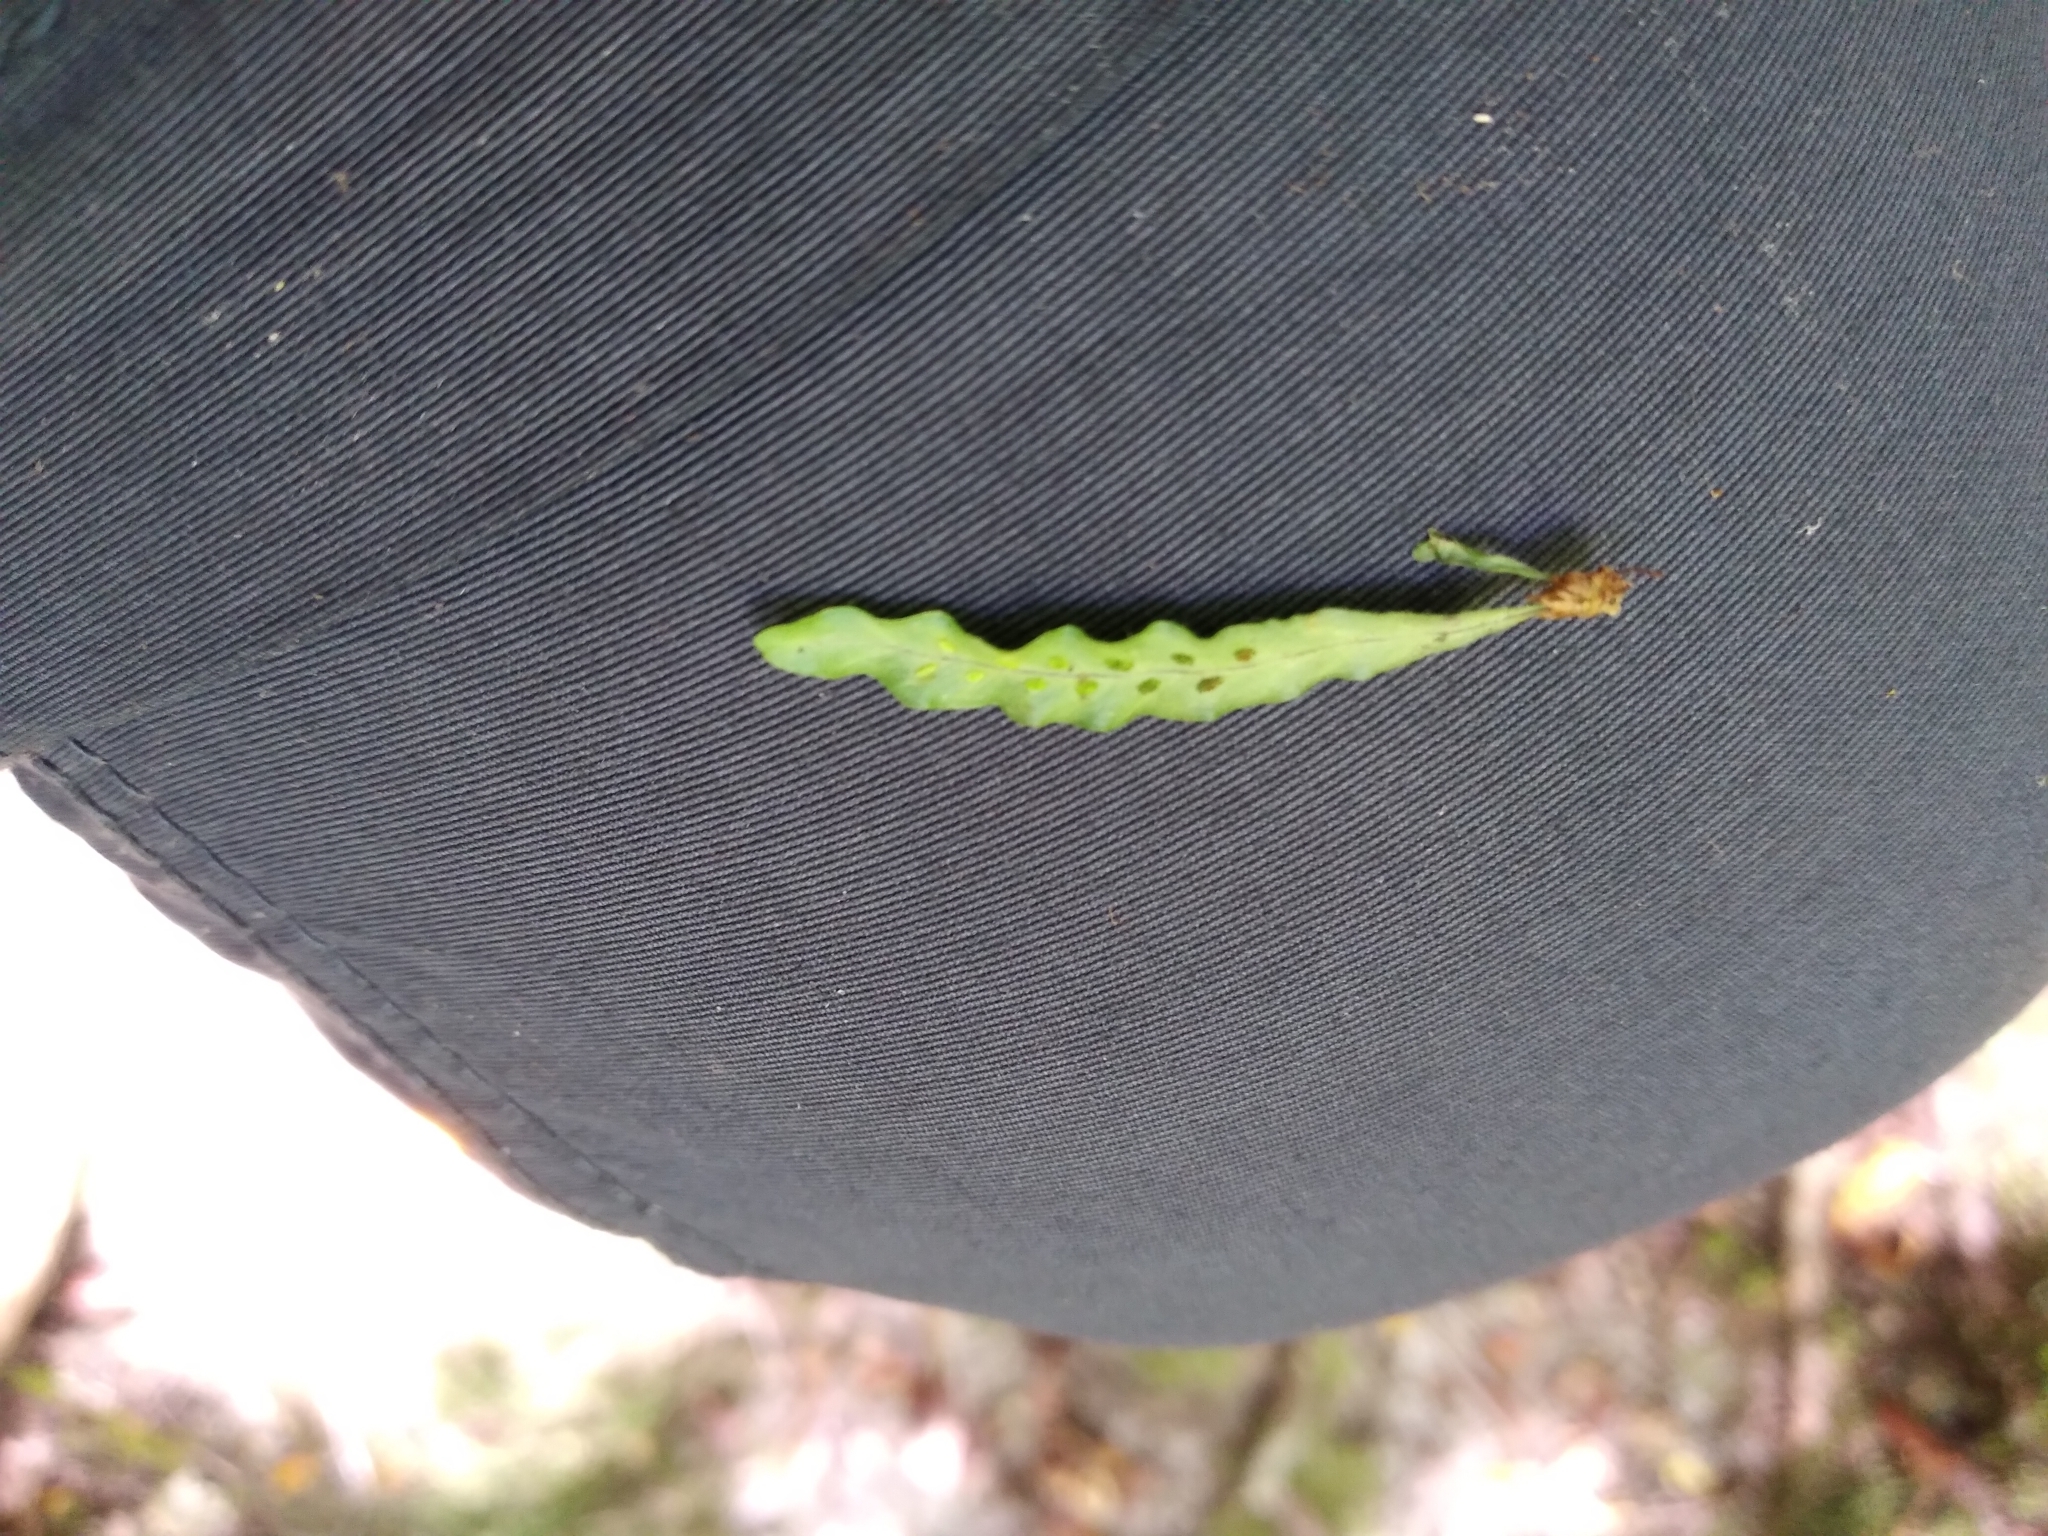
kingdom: Plantae
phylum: Tracheophyta
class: Polypodiopsida
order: Polypodiales
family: Polypodiaceae
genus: Notogrammitis
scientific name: Notogrammitis ciliata
